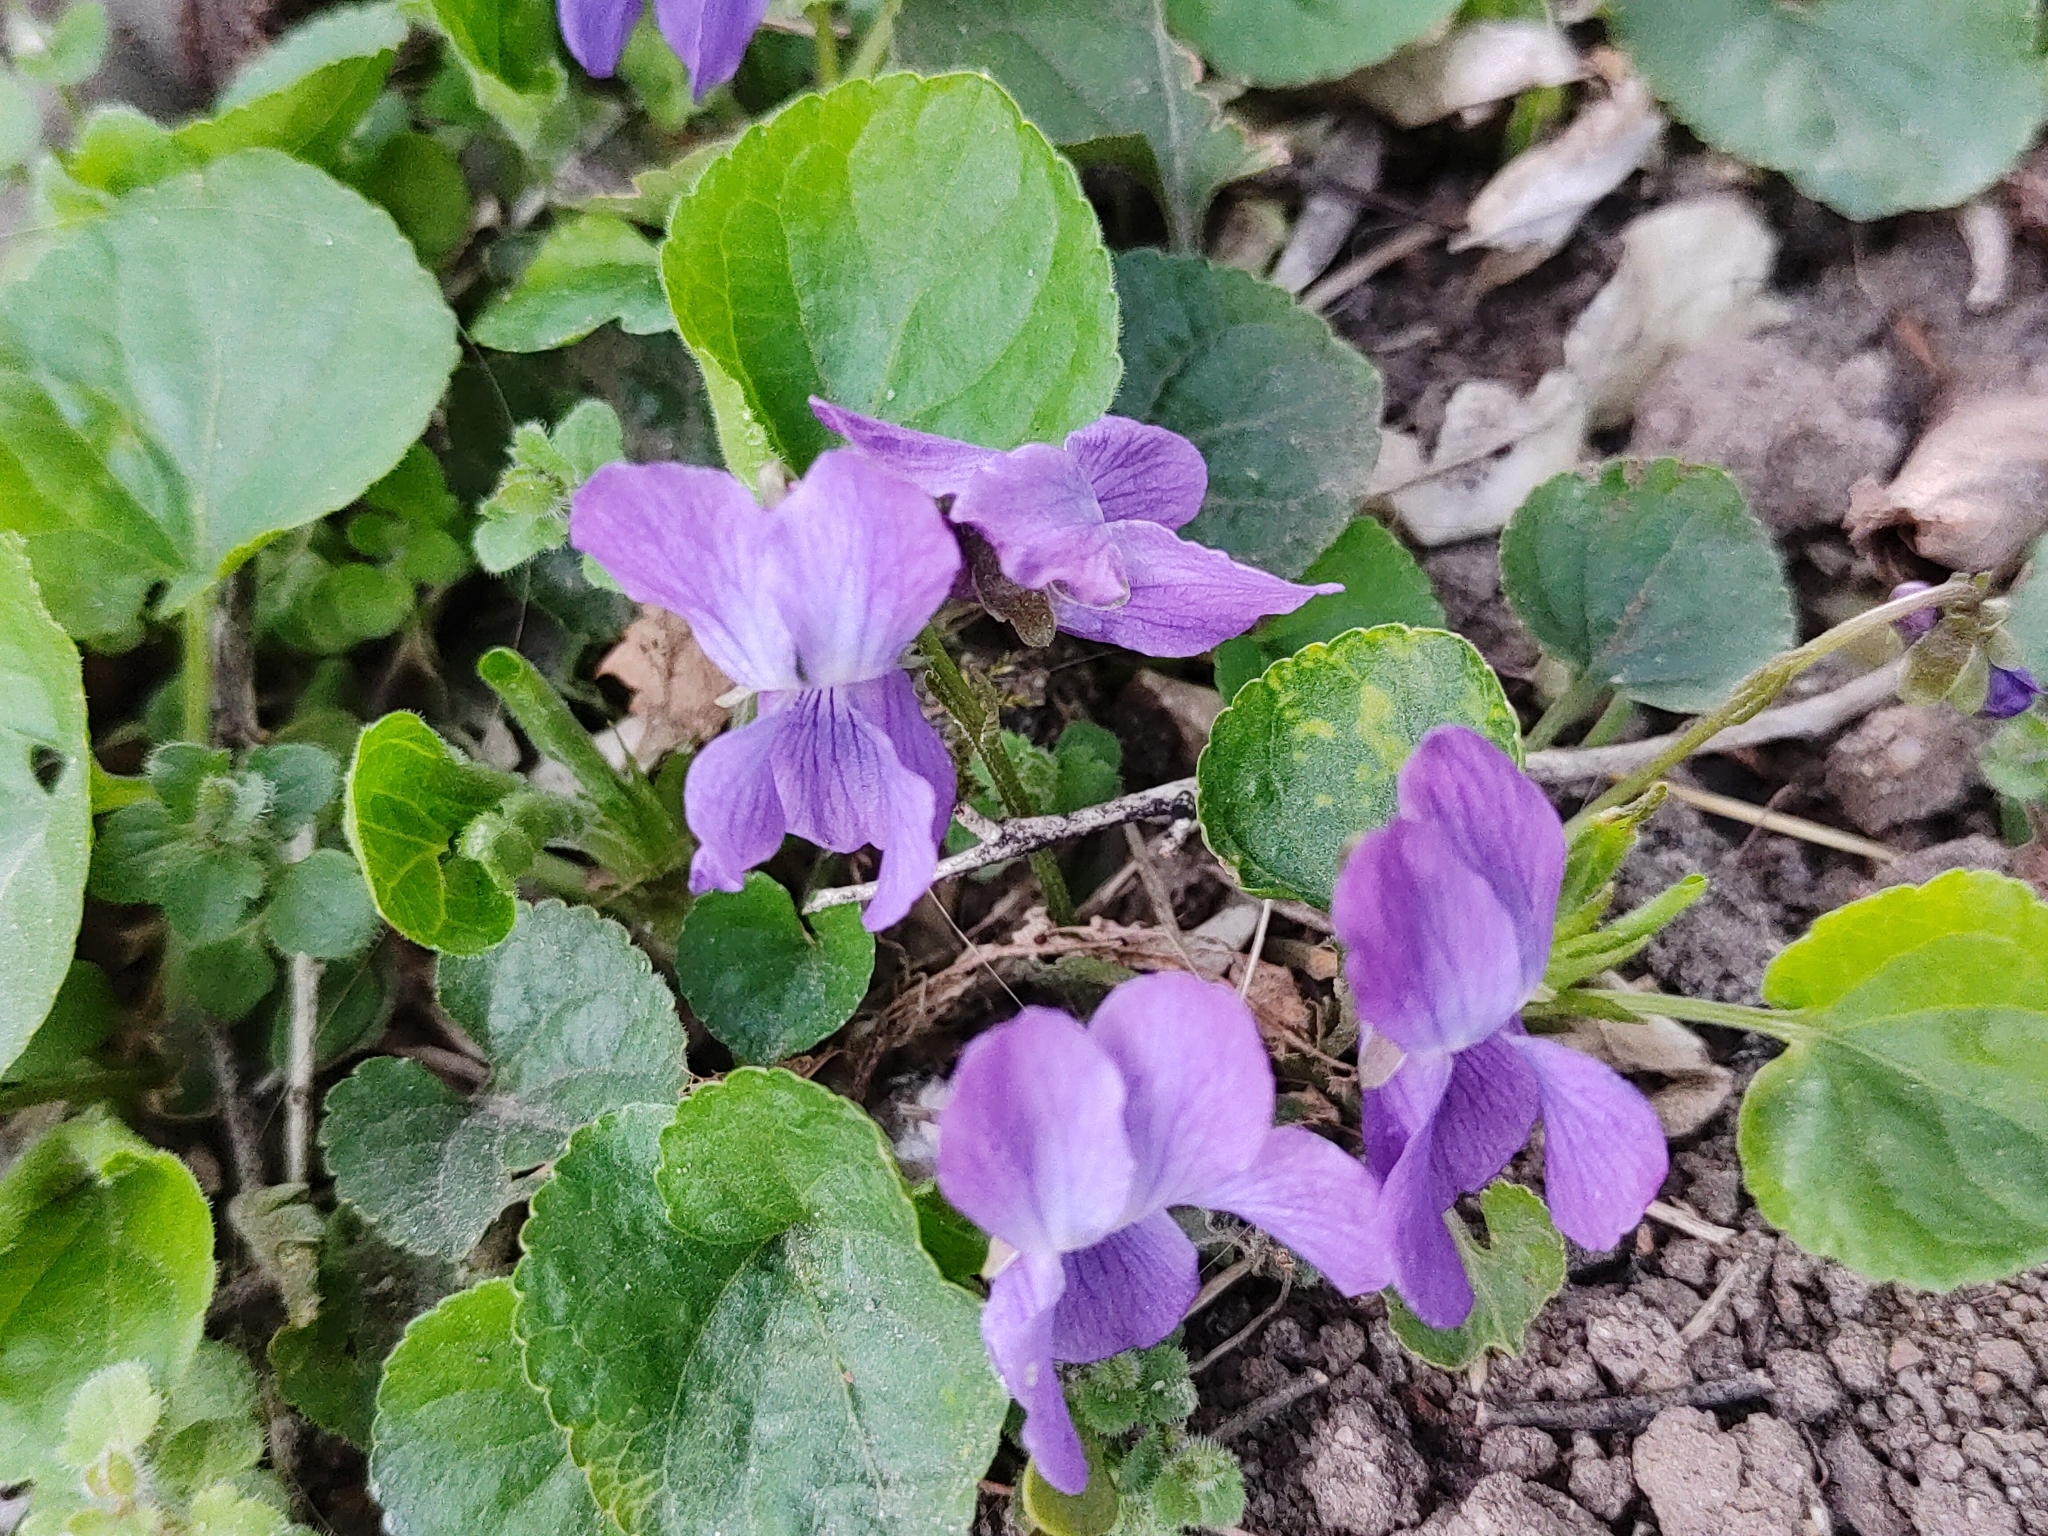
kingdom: Plantae
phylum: Tracheophyta
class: Magnoliopsida
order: Malpighiales
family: Violaceae
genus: Viola
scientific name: Viola odorata
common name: Sweet violet
